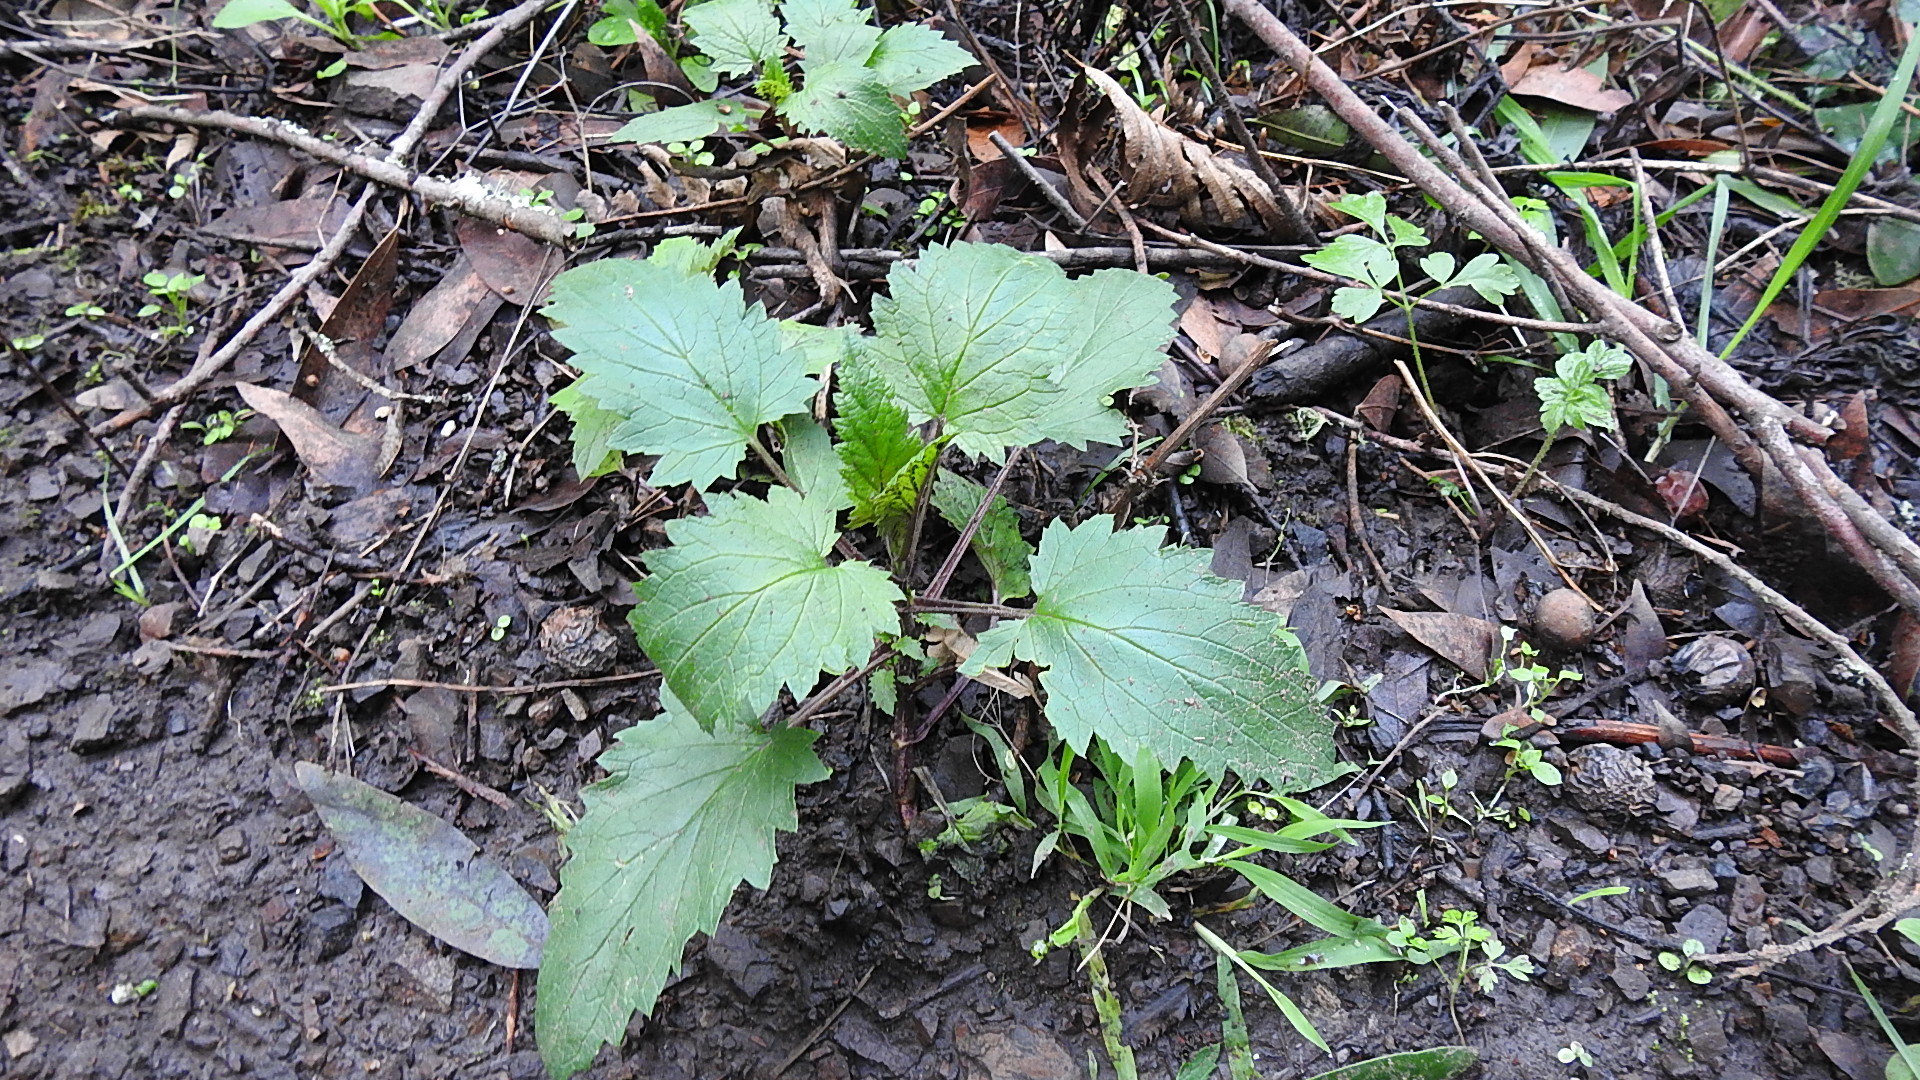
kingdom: Plantae
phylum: Tracheophyta
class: Magnoliopsida
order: Lamiales
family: Scrophulariaceae
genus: Scrophularia
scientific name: Scrophularia californica
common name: California figwort
